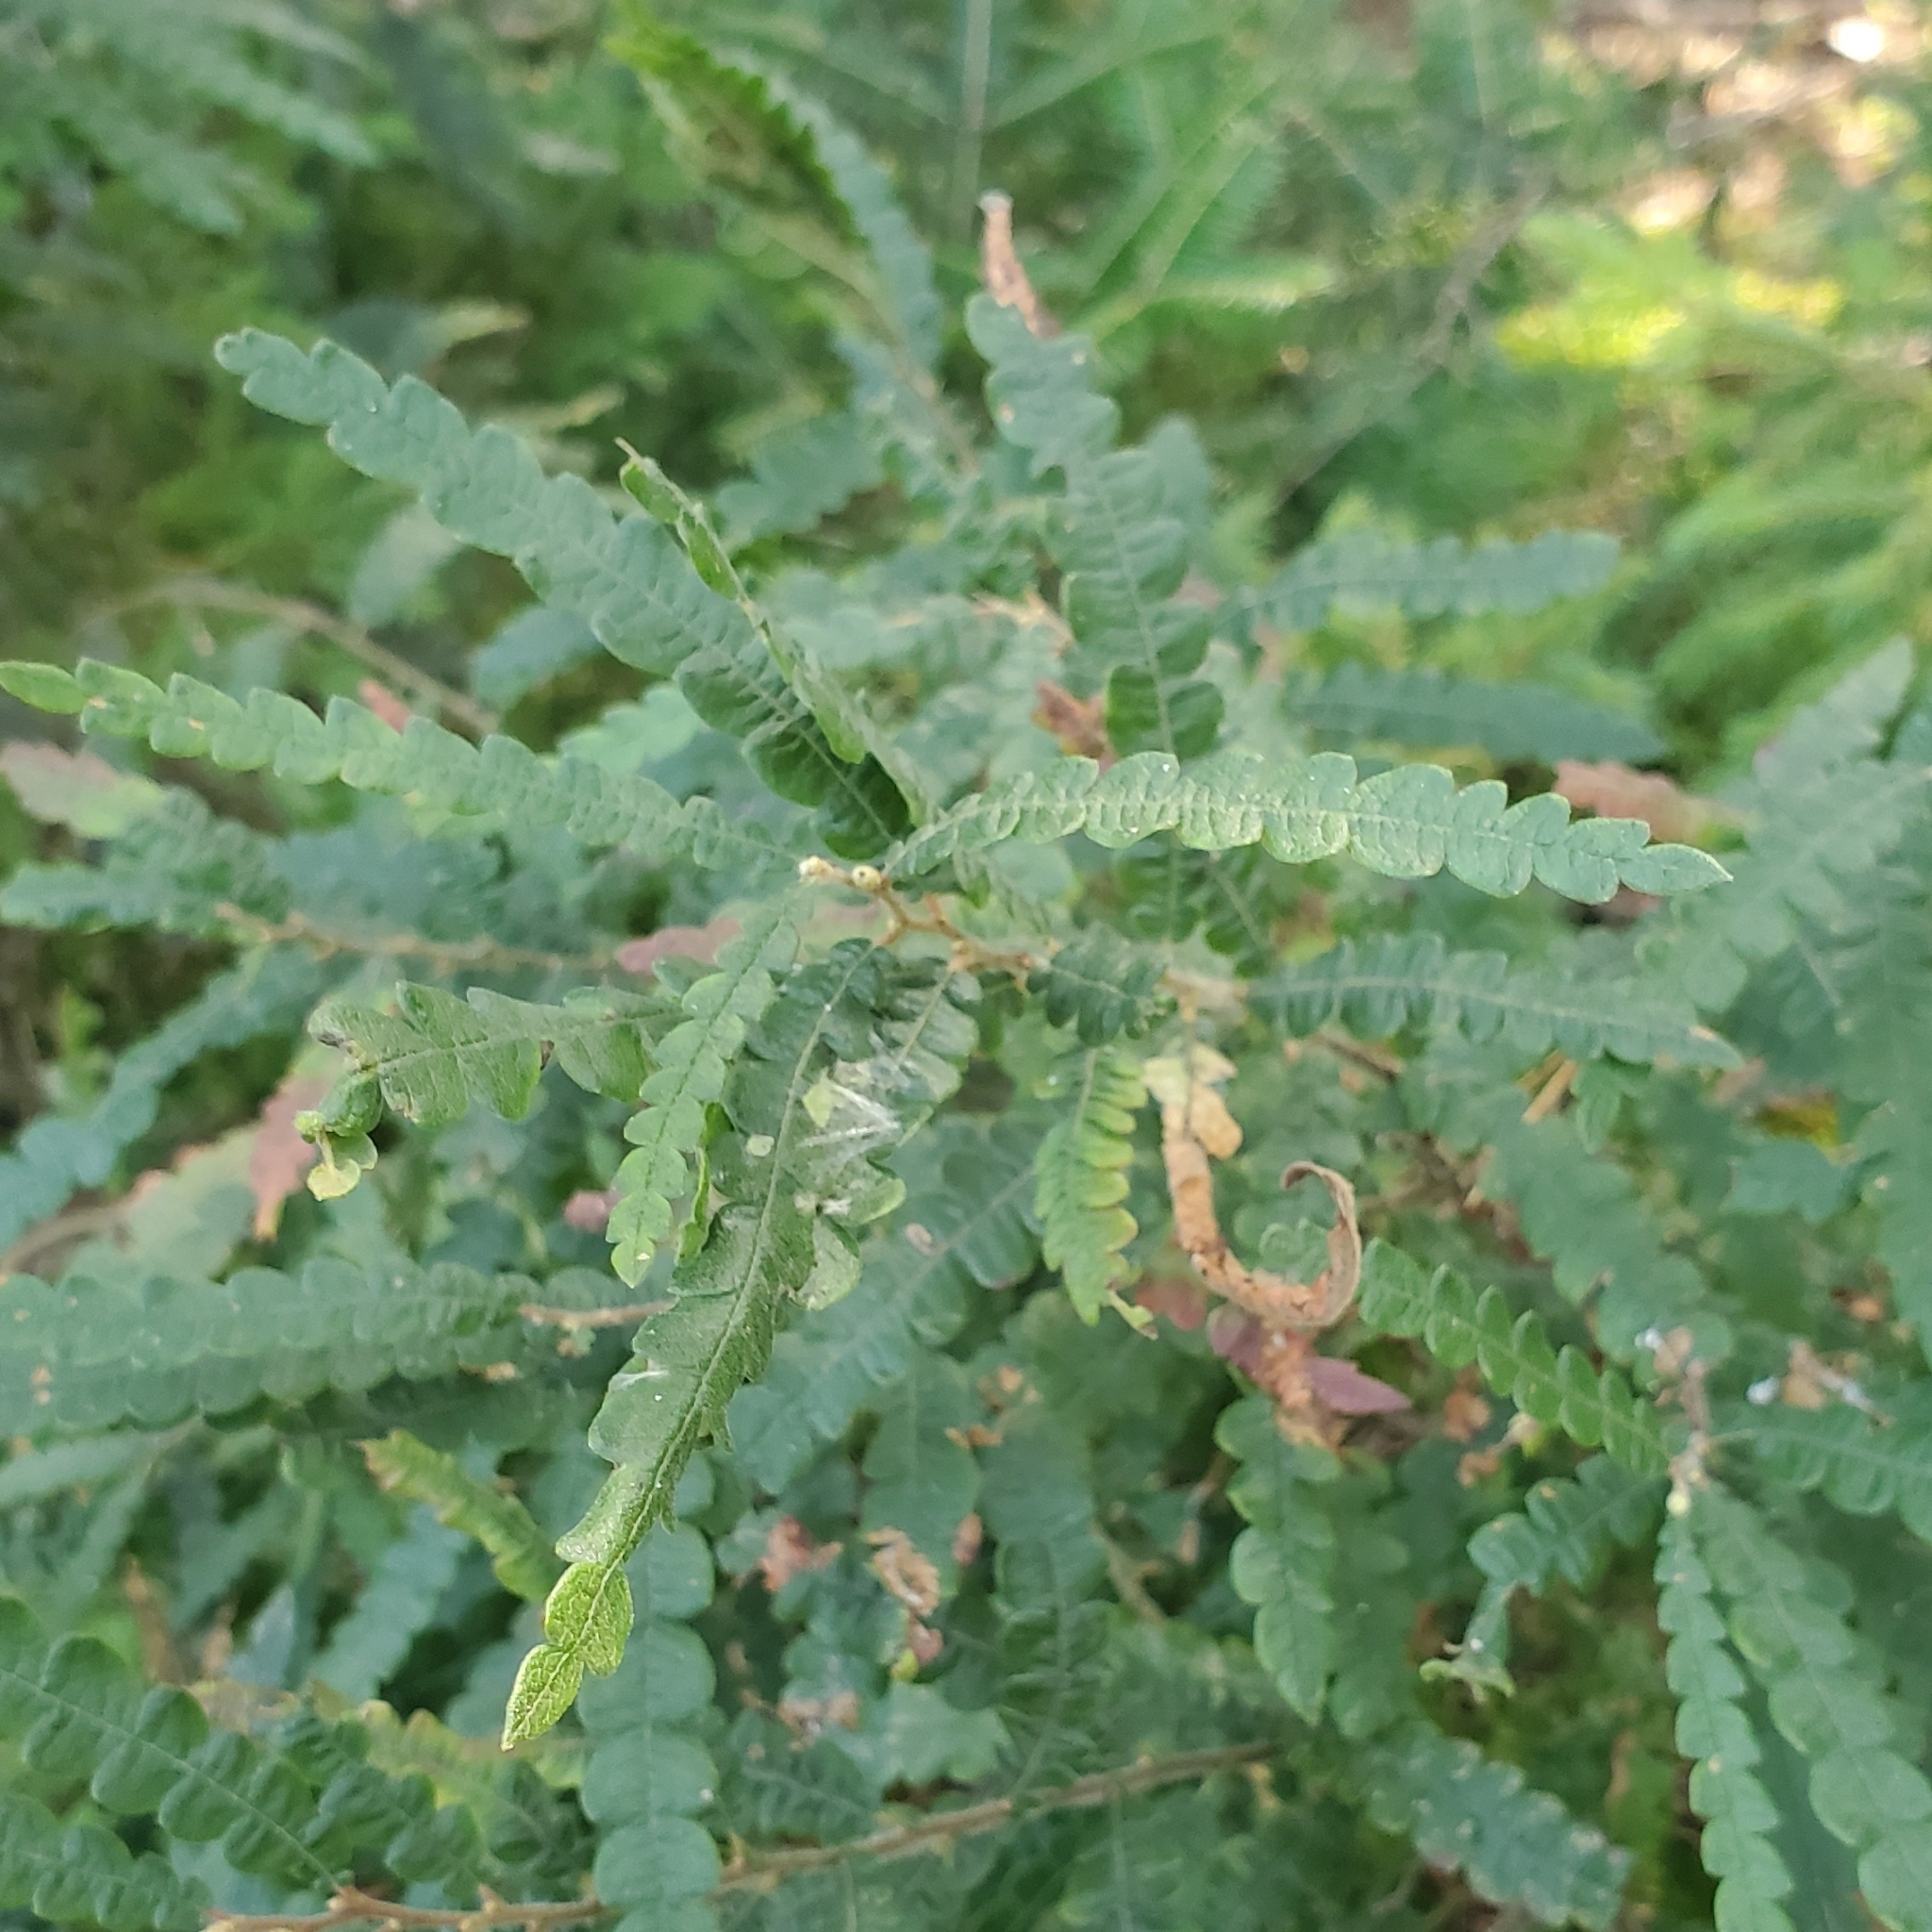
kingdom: Plantae
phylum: Tracheophyta
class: Magnoliopsida
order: Fagales
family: Myricaceae
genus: Comptonia
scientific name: Comptonia peregrina
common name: Sweet-fern
